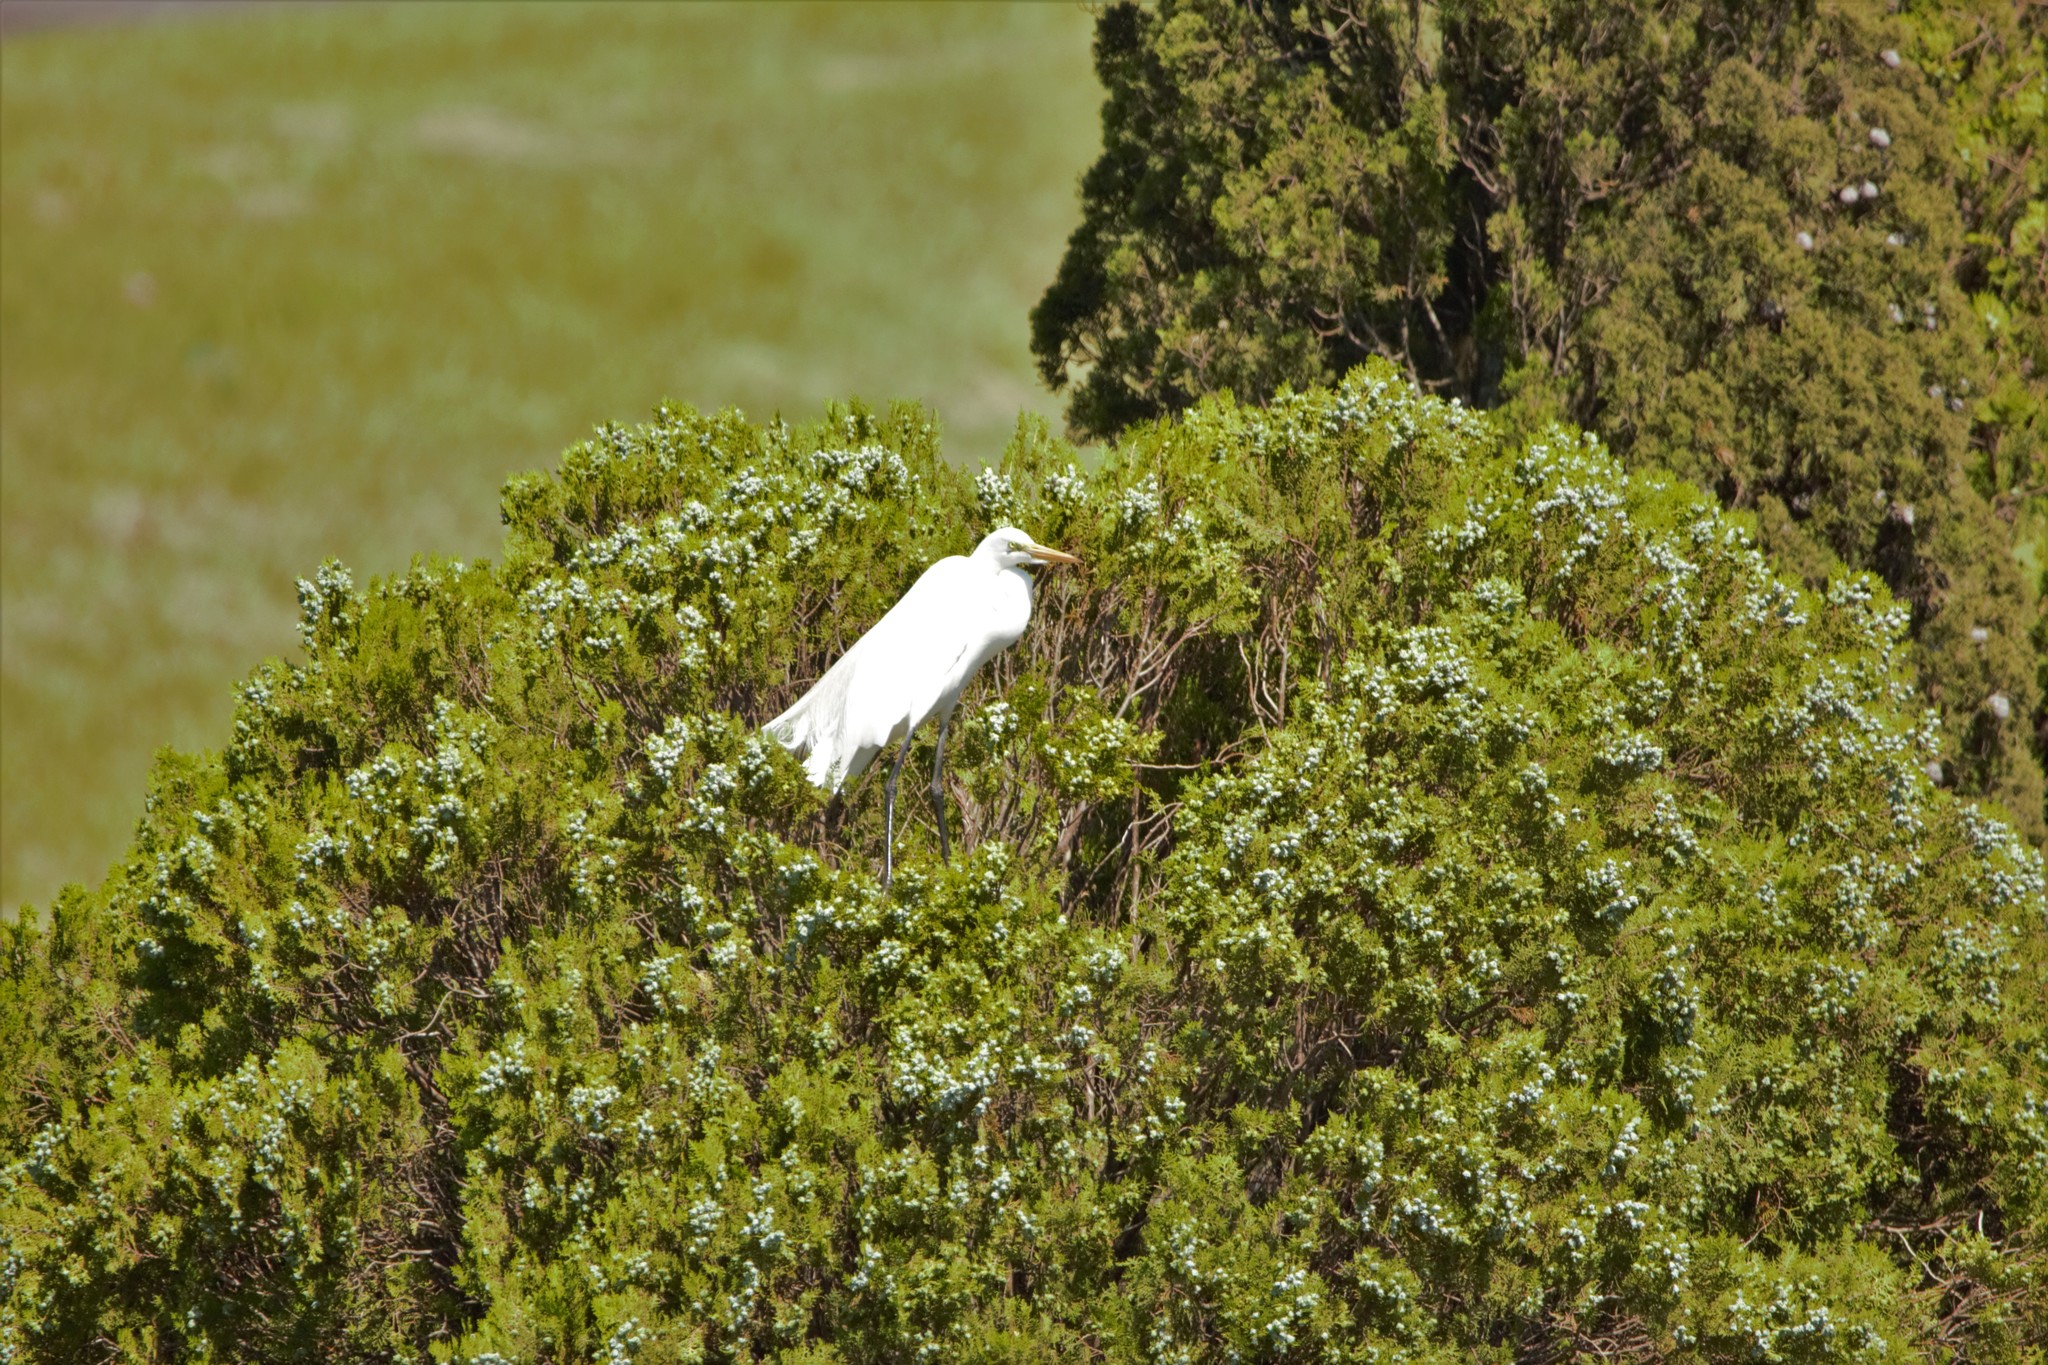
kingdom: Animalia
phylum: Chordata
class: Aves
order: Pelecaniformes
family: Ardeidae
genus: Ardea
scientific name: Ardea alba
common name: Great egret
